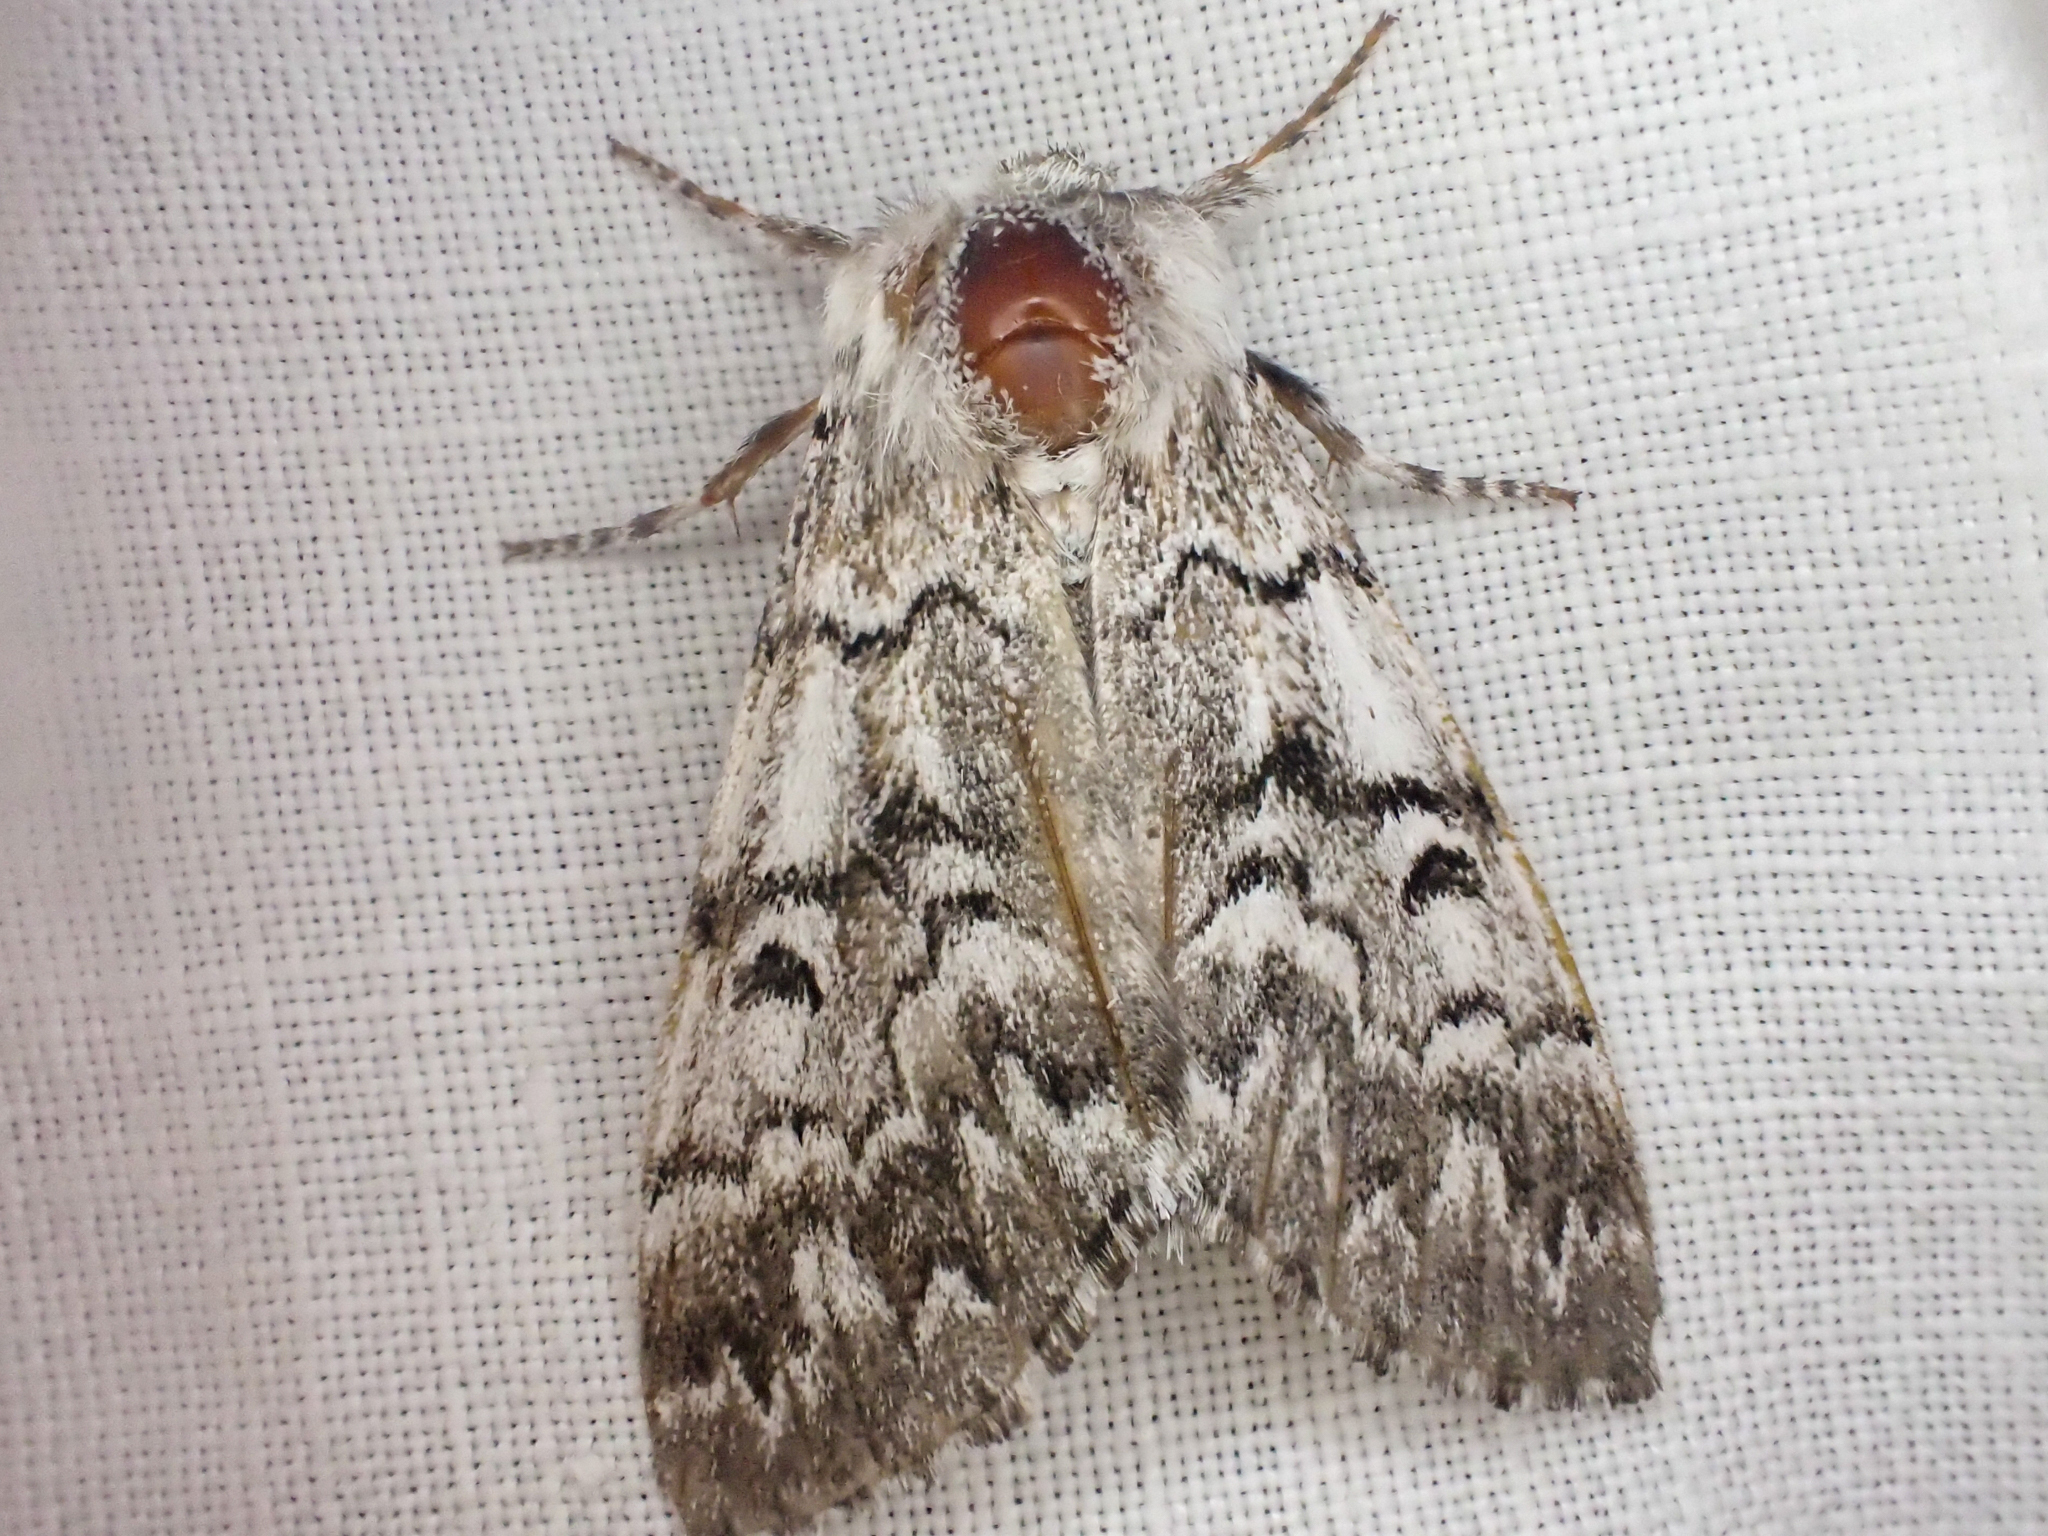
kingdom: Animalia
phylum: Arthropoda
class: Insecta
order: Lepidoptera
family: Noctuidae
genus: Panthea
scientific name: Panthea virginarius
